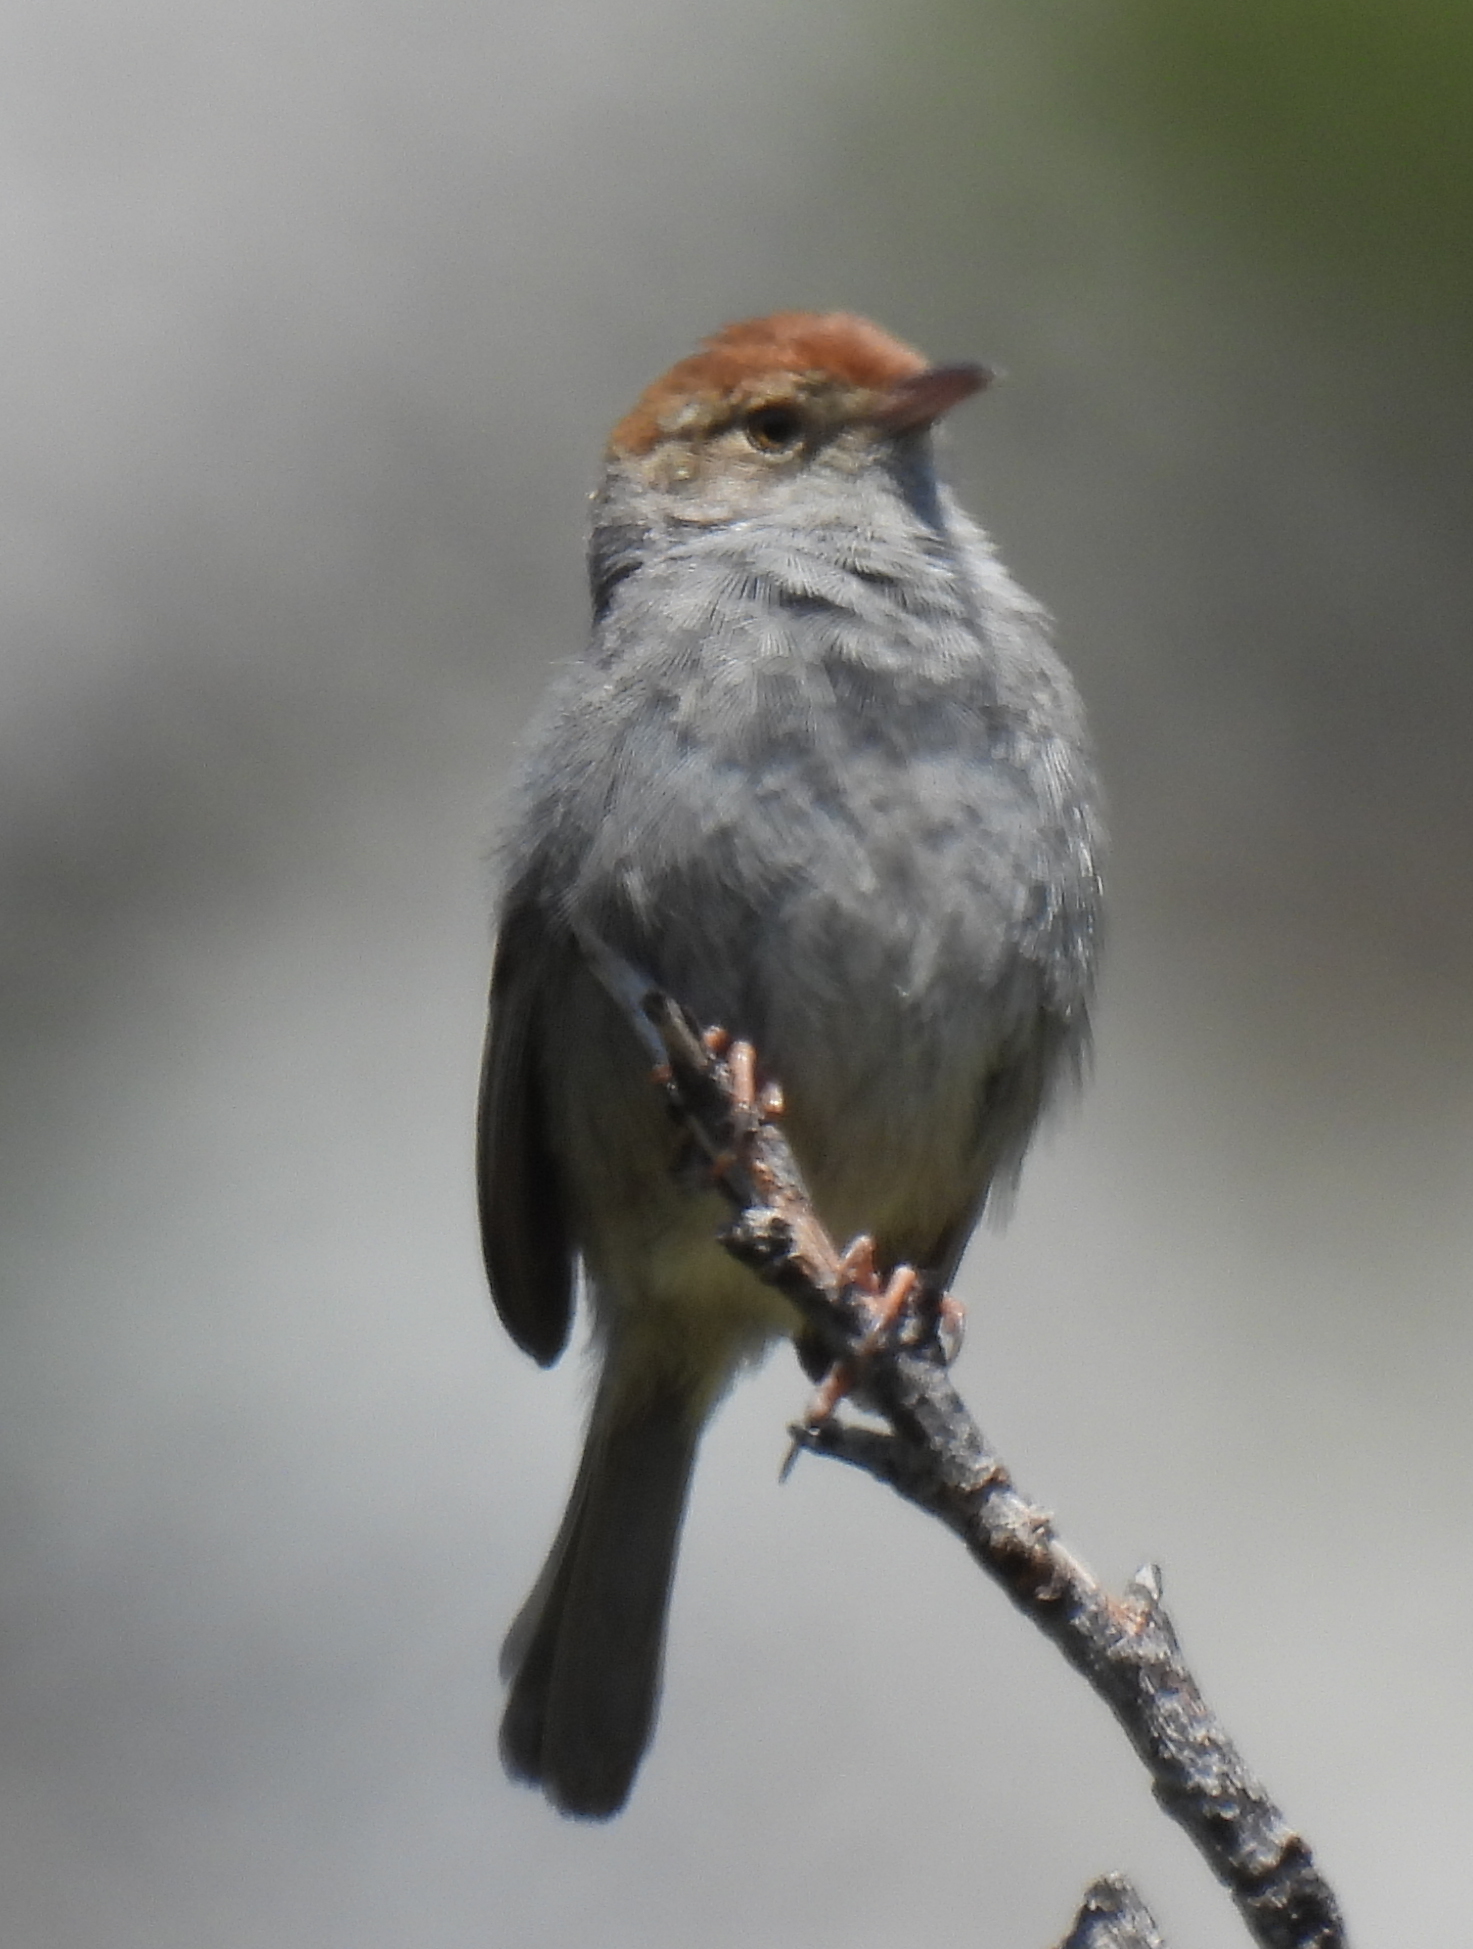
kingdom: Animalia
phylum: Chordata
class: Aves
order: Passeriformes
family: Cisticolidae
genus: Cisticola
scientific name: Cisticola fulvicapilla
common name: Neddicky
